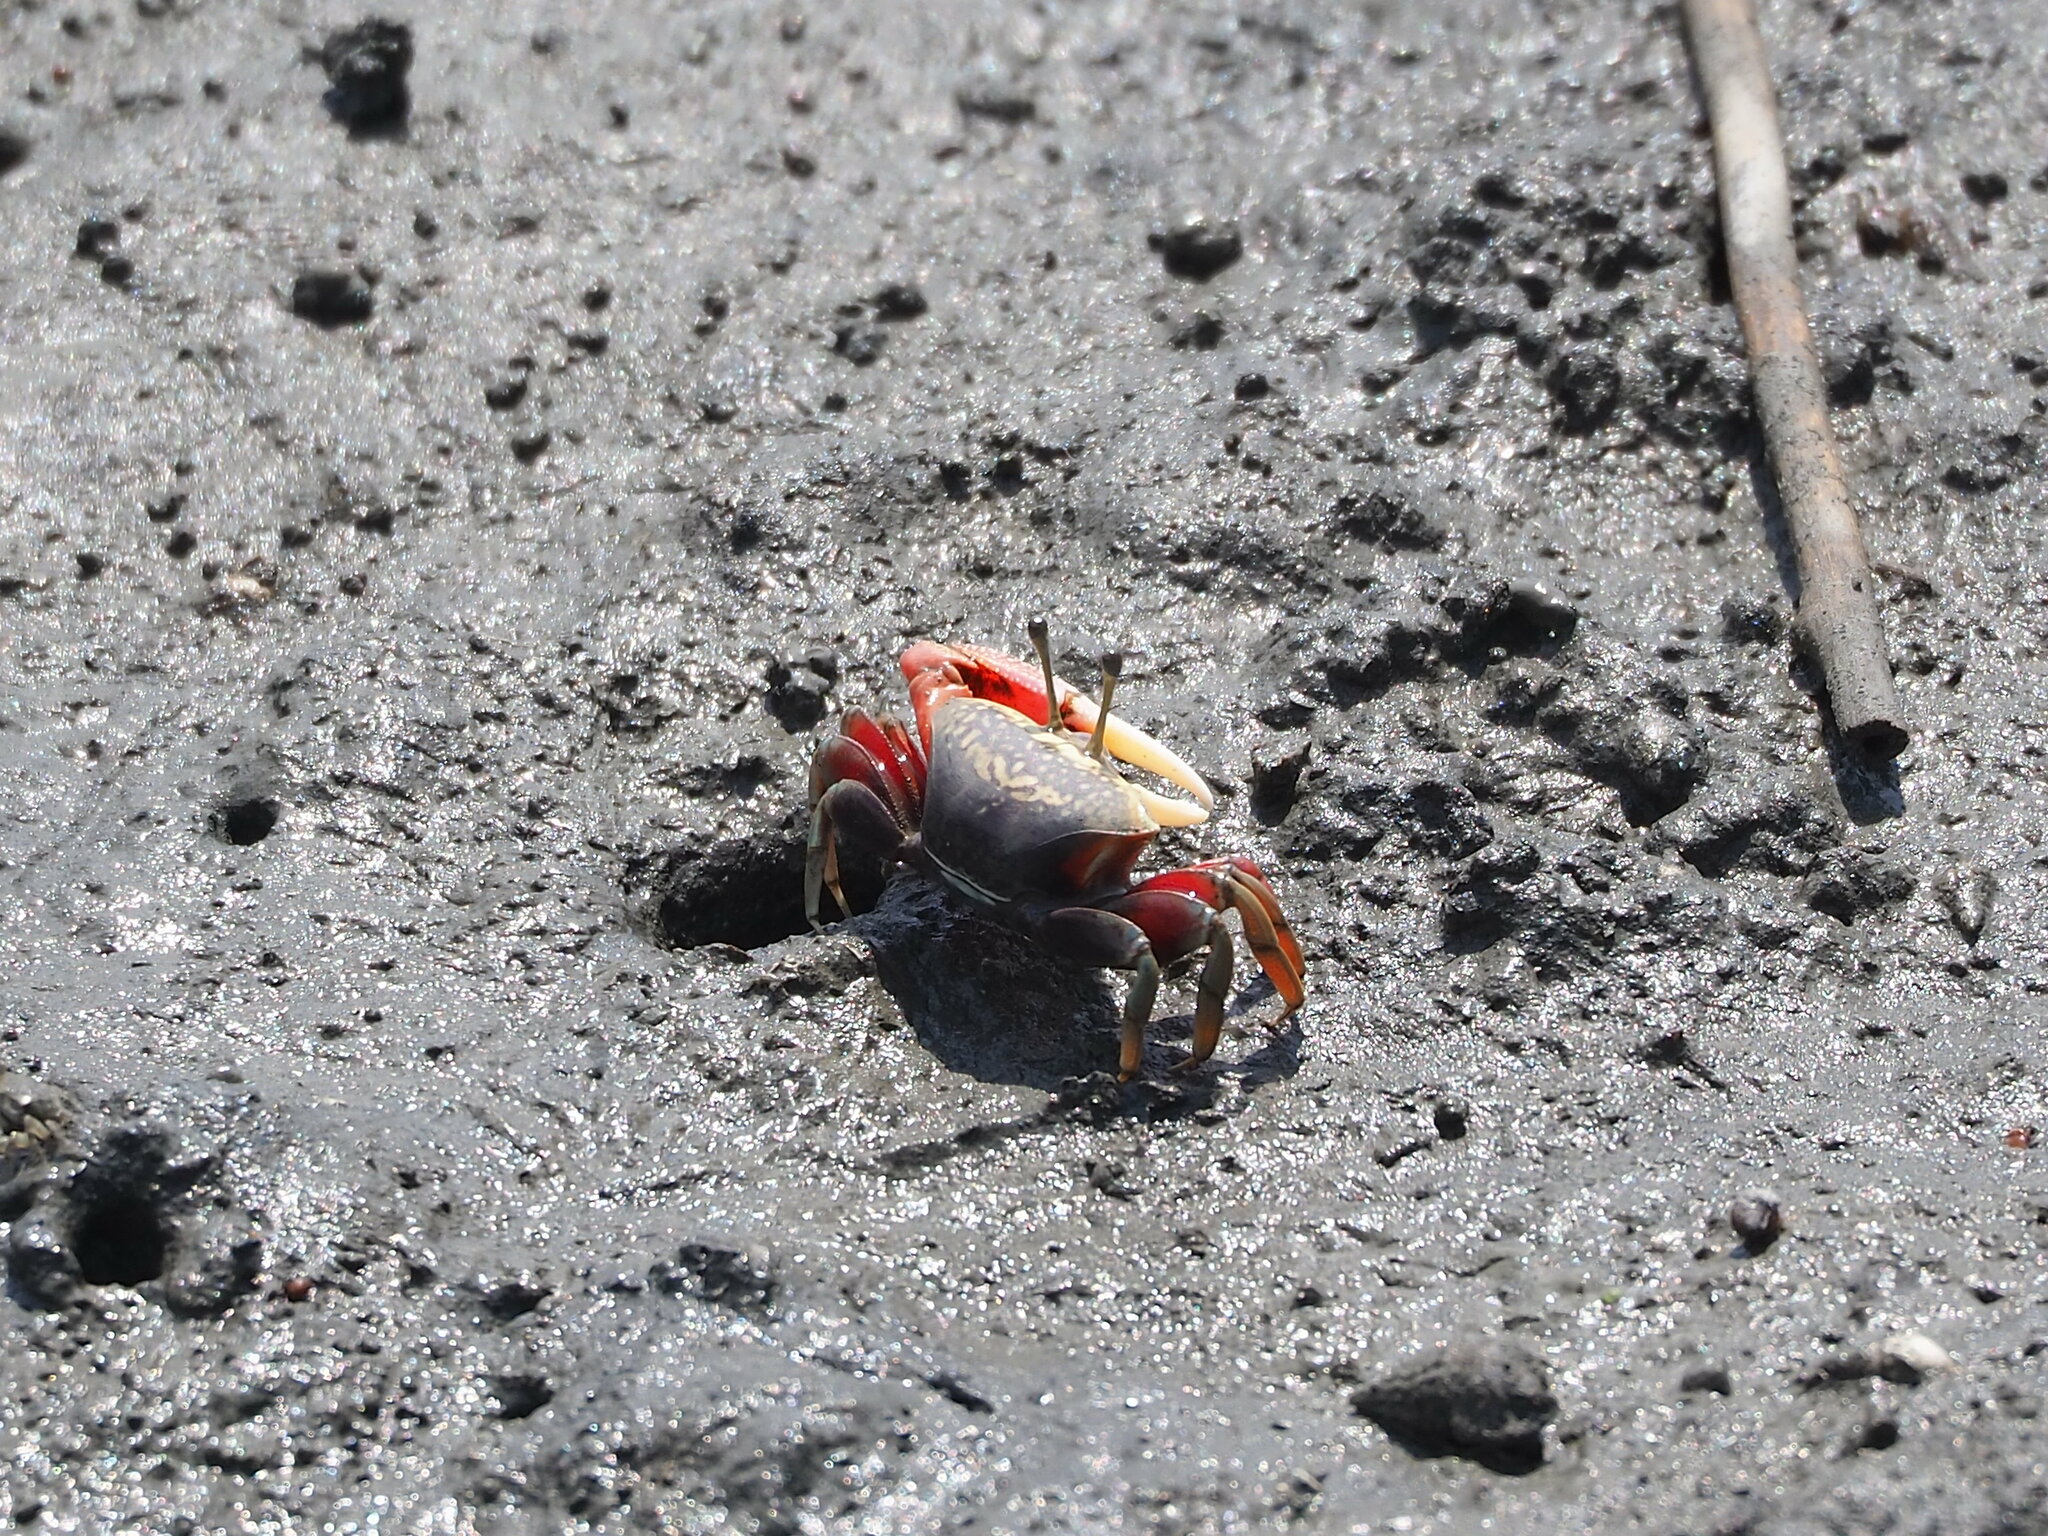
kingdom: Animalia
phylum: Arthropoda
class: Malacostraca
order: Decapoda
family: Ocypodidae
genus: Tubuca
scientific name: Tubuca arcuata
